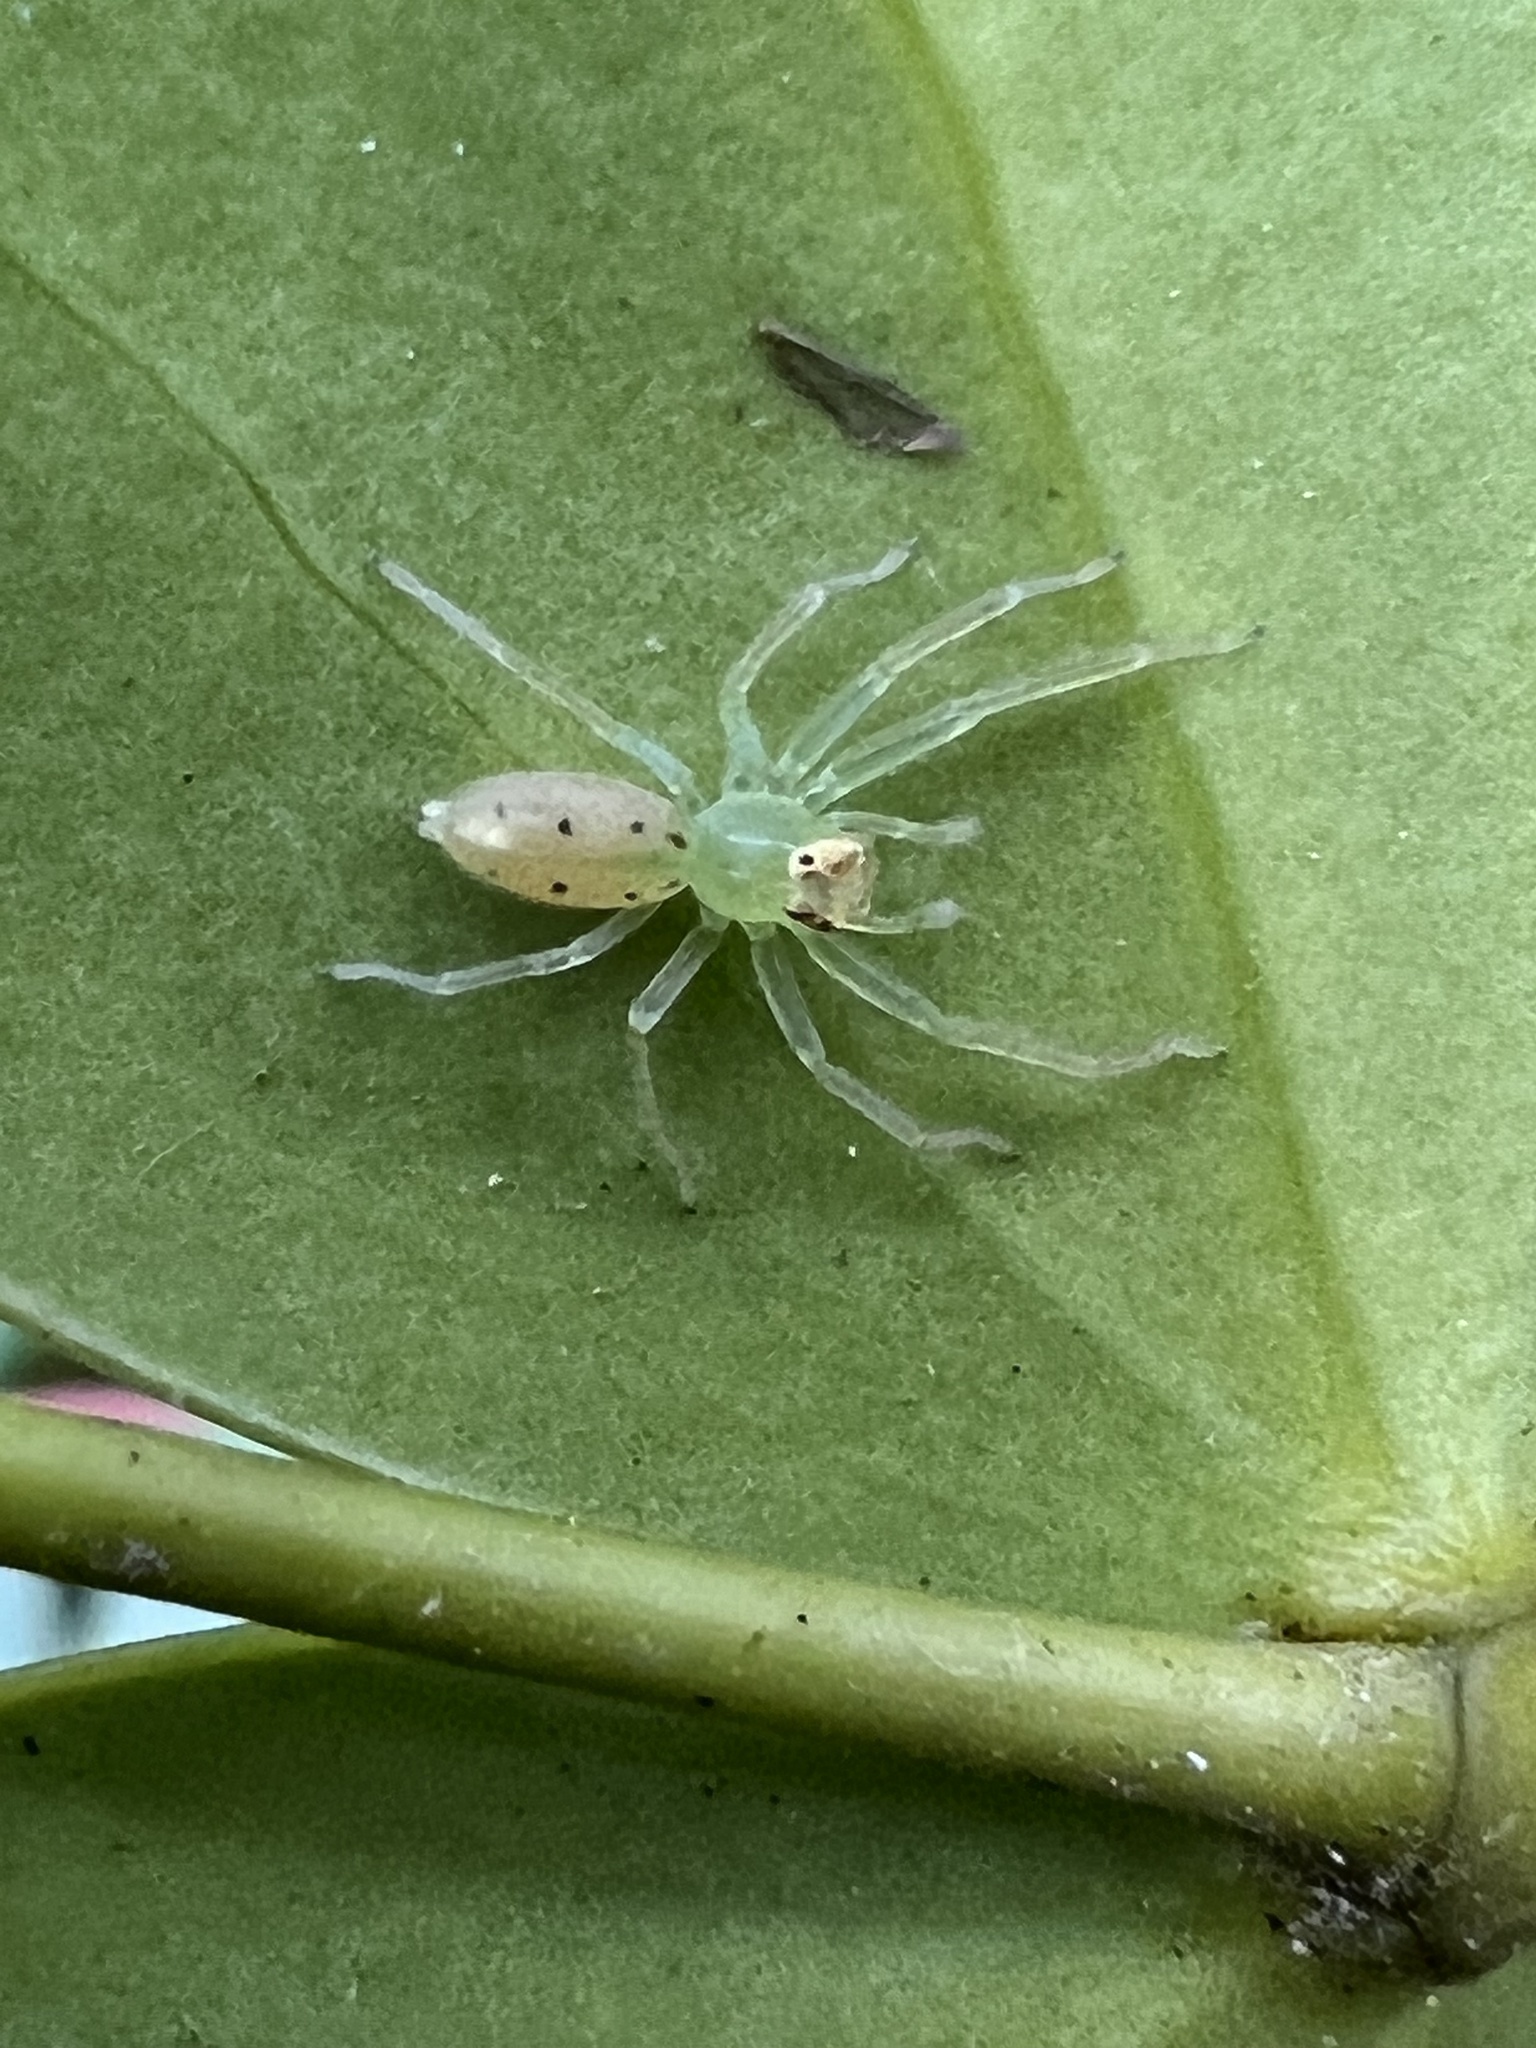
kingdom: Animalia
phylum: Arthropoda
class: Arachnida
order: Araneae
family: Salticidae
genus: Lyssomanes
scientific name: Lyssomanes viridis
